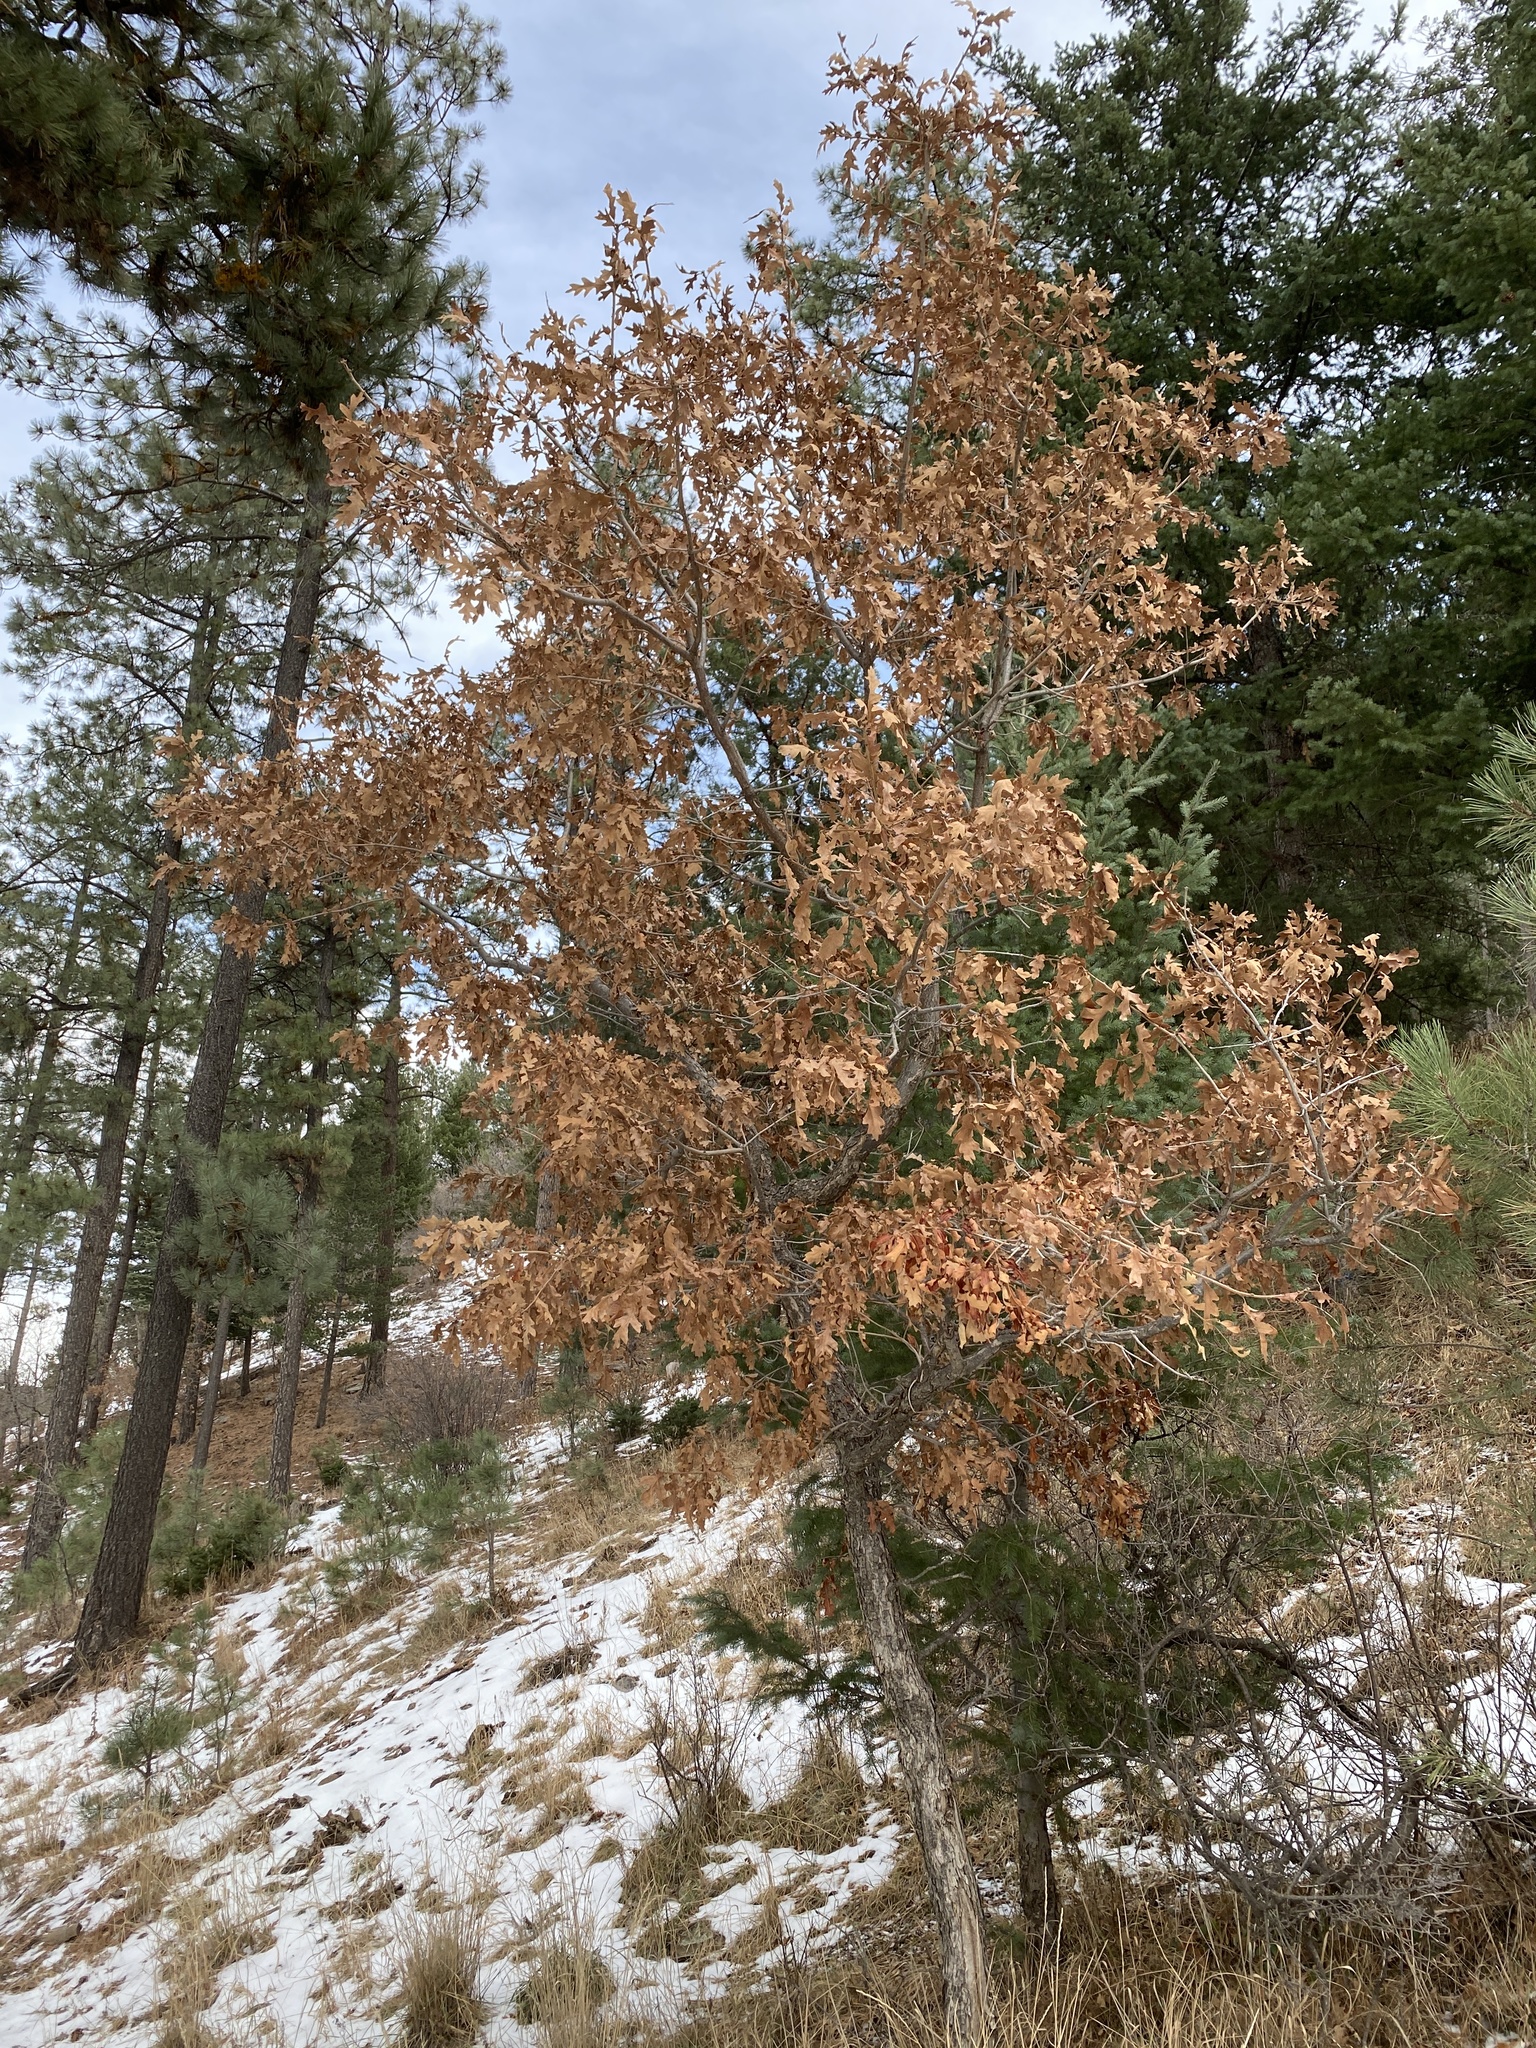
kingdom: Plantae
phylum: Tracheophyta
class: Magnoliopsida
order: Fagales
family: Fagaceae
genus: Quercus
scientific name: Quercus gambelii
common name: Gambel oak
